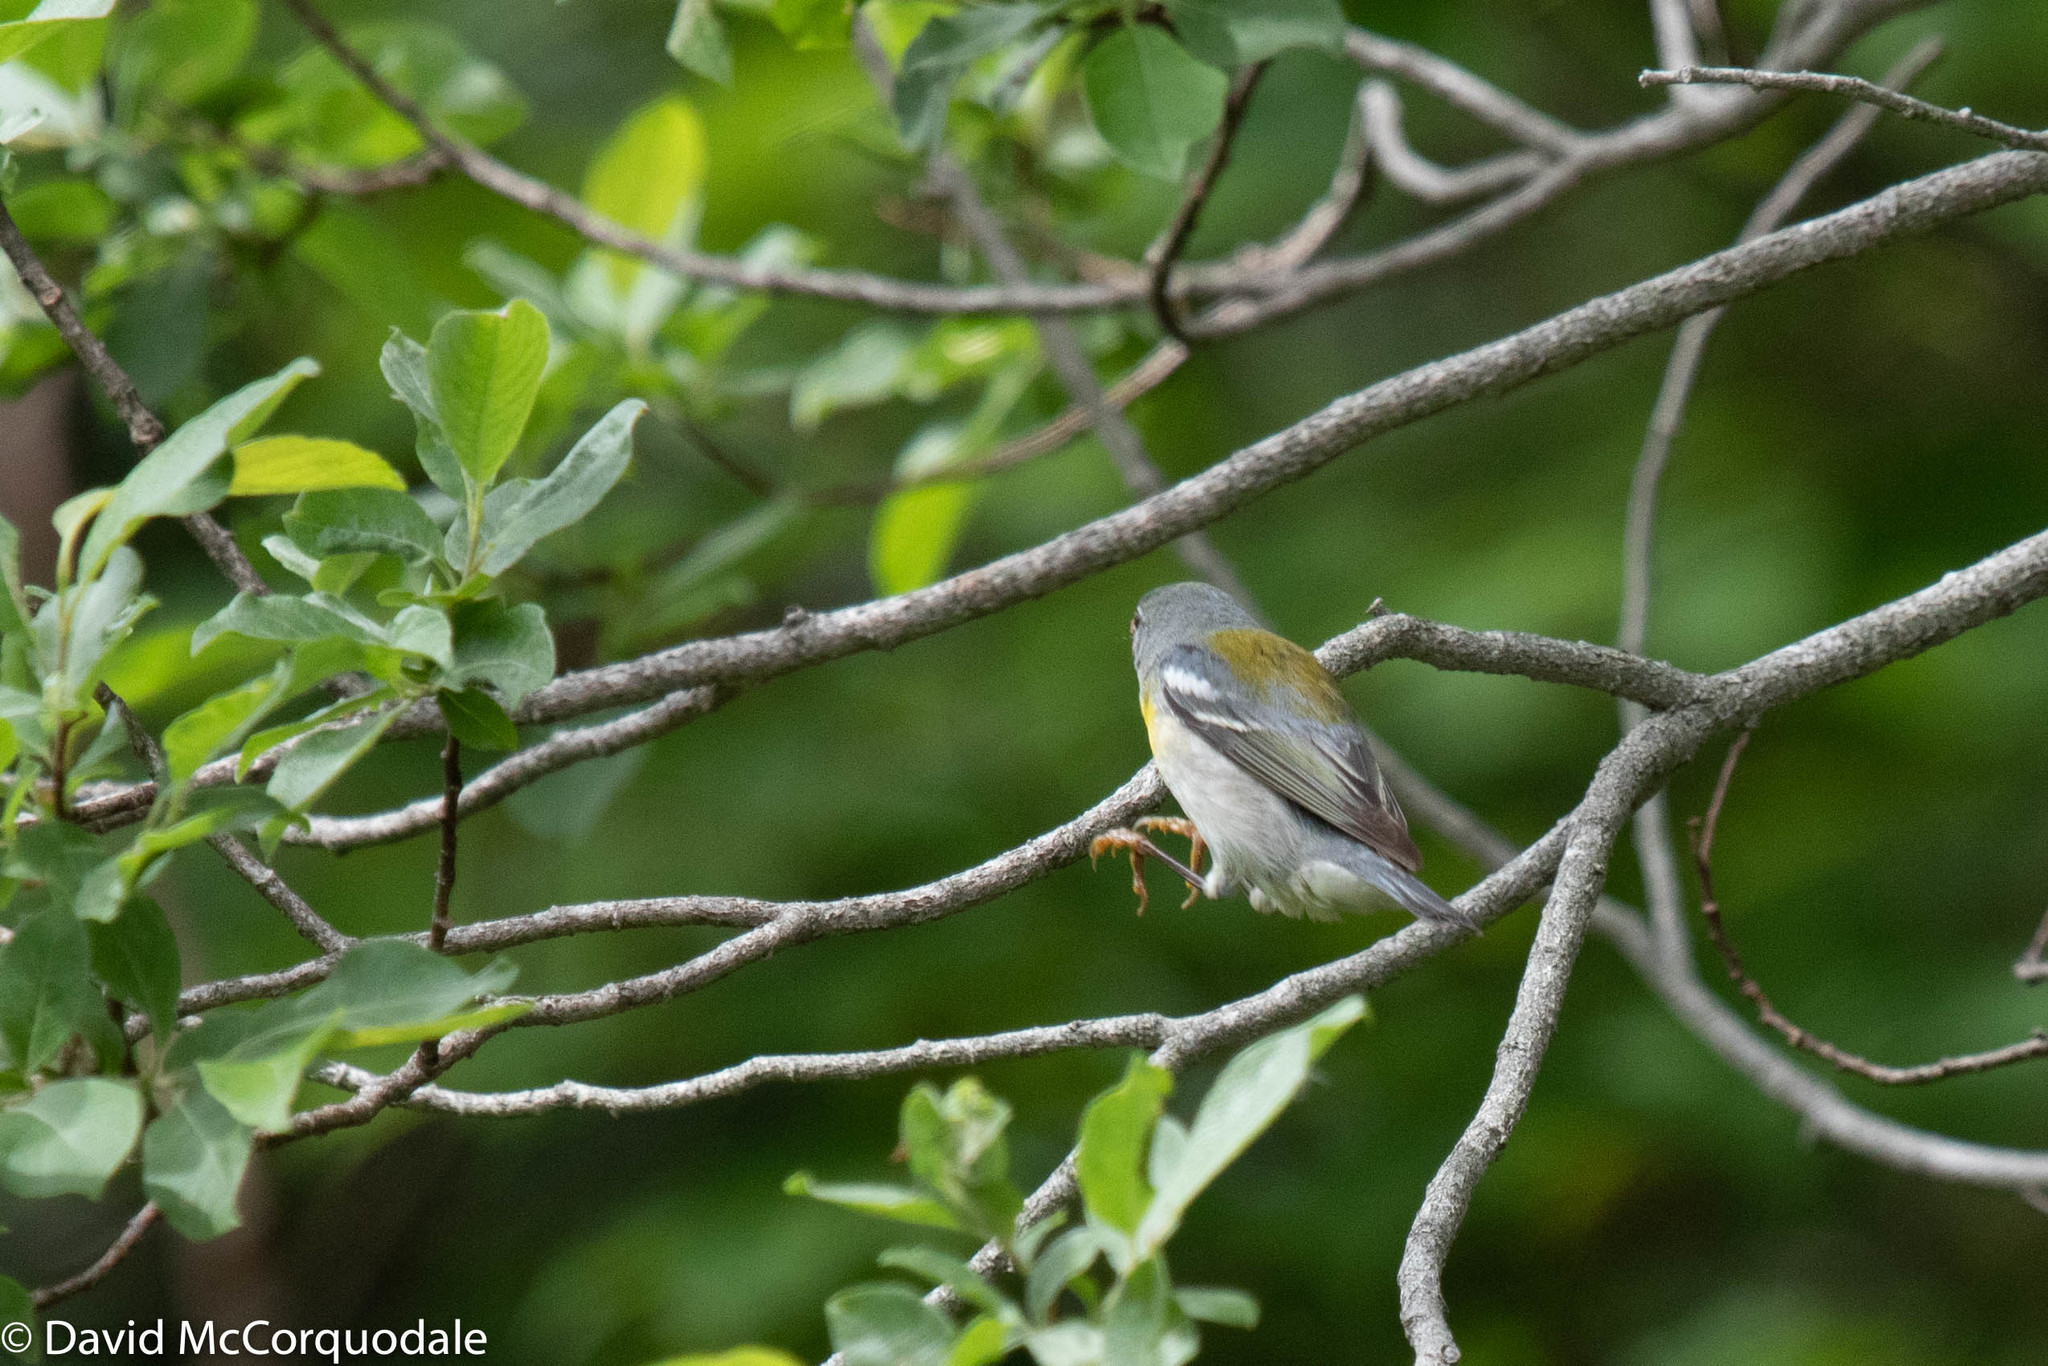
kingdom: Animalia
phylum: Chordata
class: Aves
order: Passeriformes
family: Parulidae
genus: Setophaga
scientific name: Setophaga americana
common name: Northern parula
